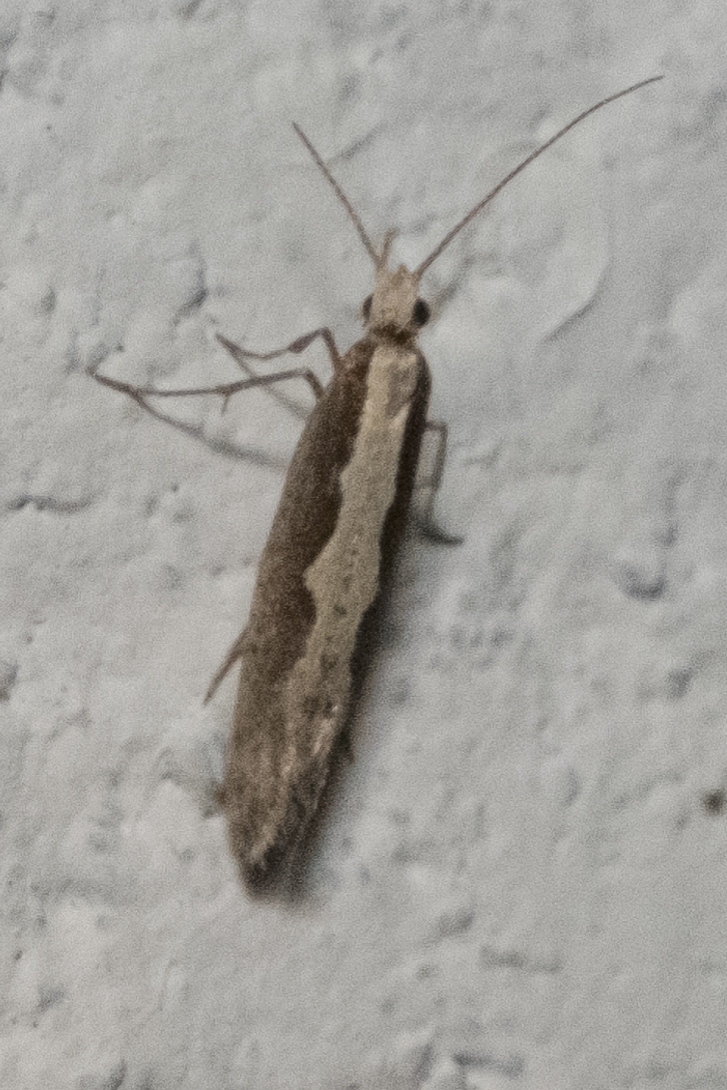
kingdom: Animalia
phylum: Arthropoda
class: Insecta
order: Lepidoptera
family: Plutellidae
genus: Plutella
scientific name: Plutella xylostella
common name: Diamond-back moth
